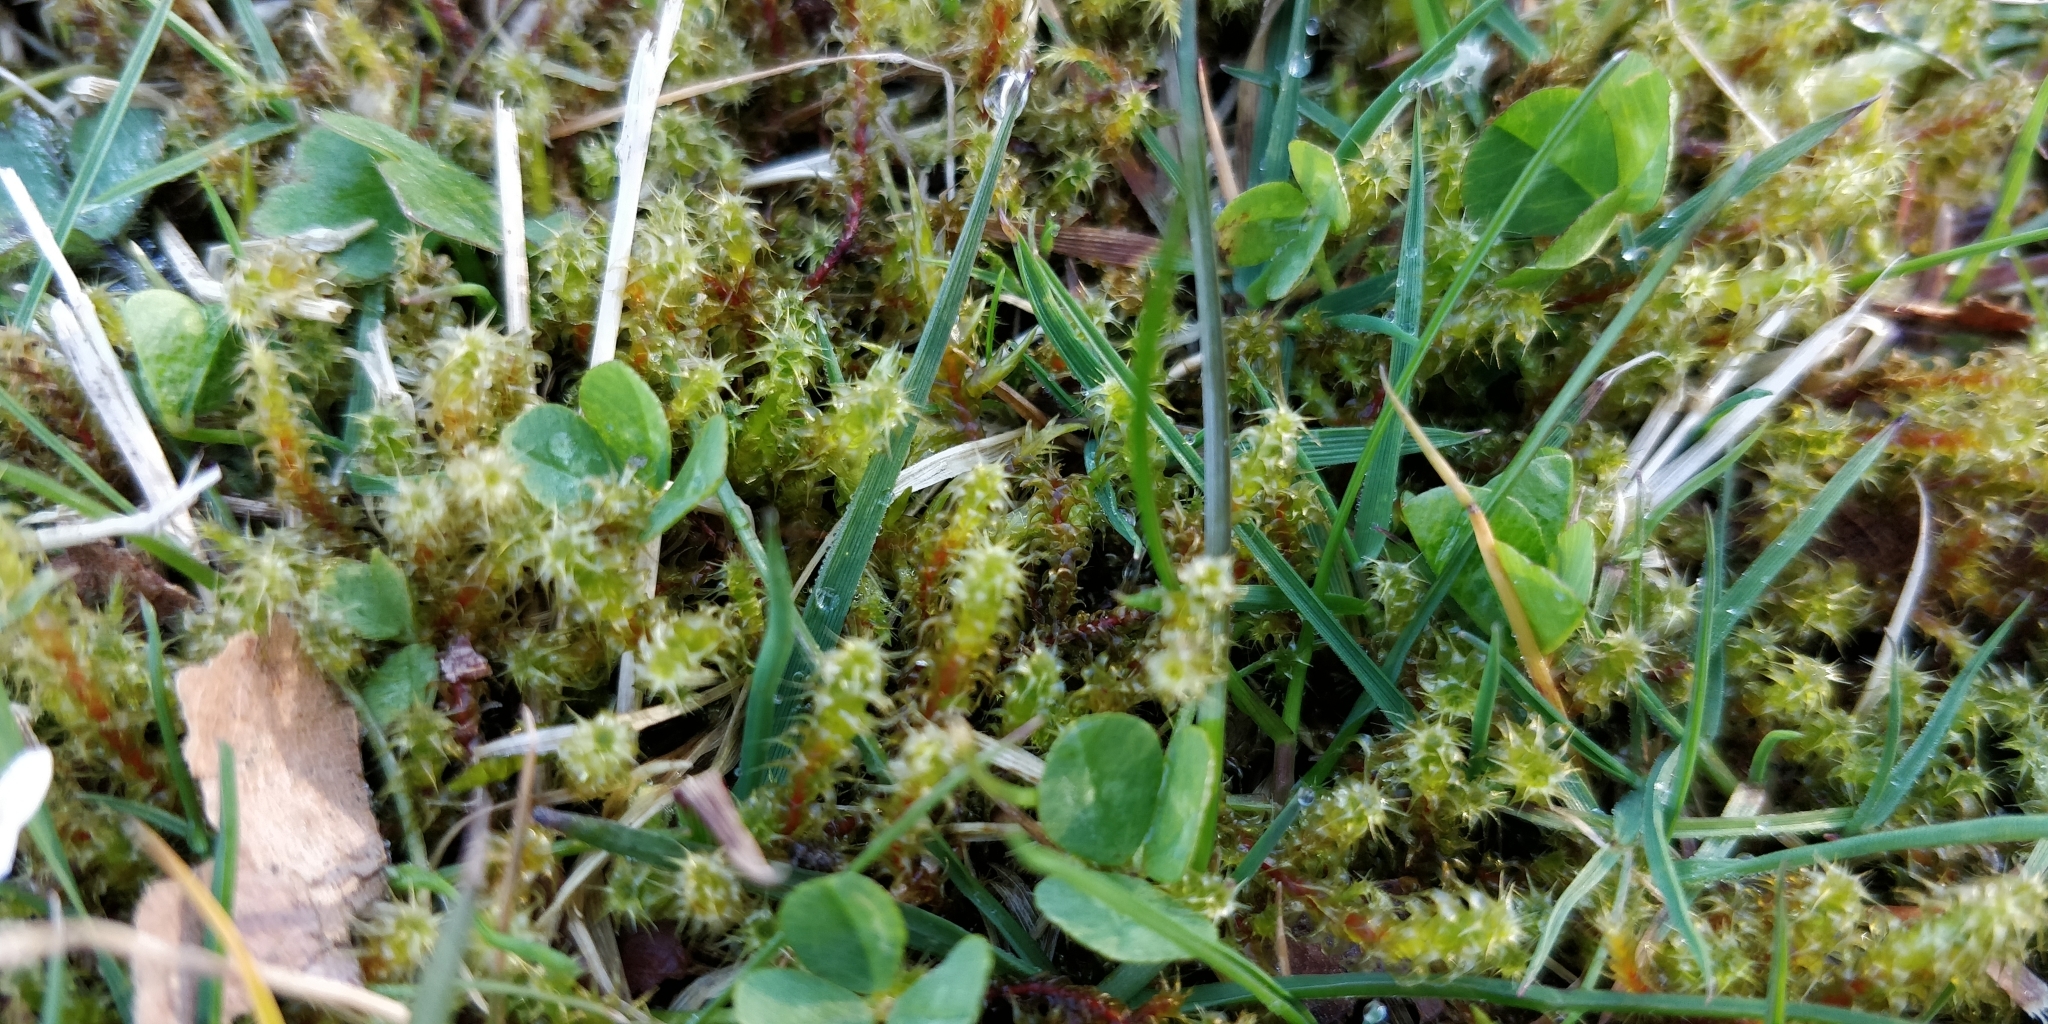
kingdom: Plantae
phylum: Bryophyta
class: Bryopsida
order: Hypnales
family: Hylocomiaceae
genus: Rhytidiadelphus
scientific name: Rhytidiadelphus squarrosus
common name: Springy turf-moss
